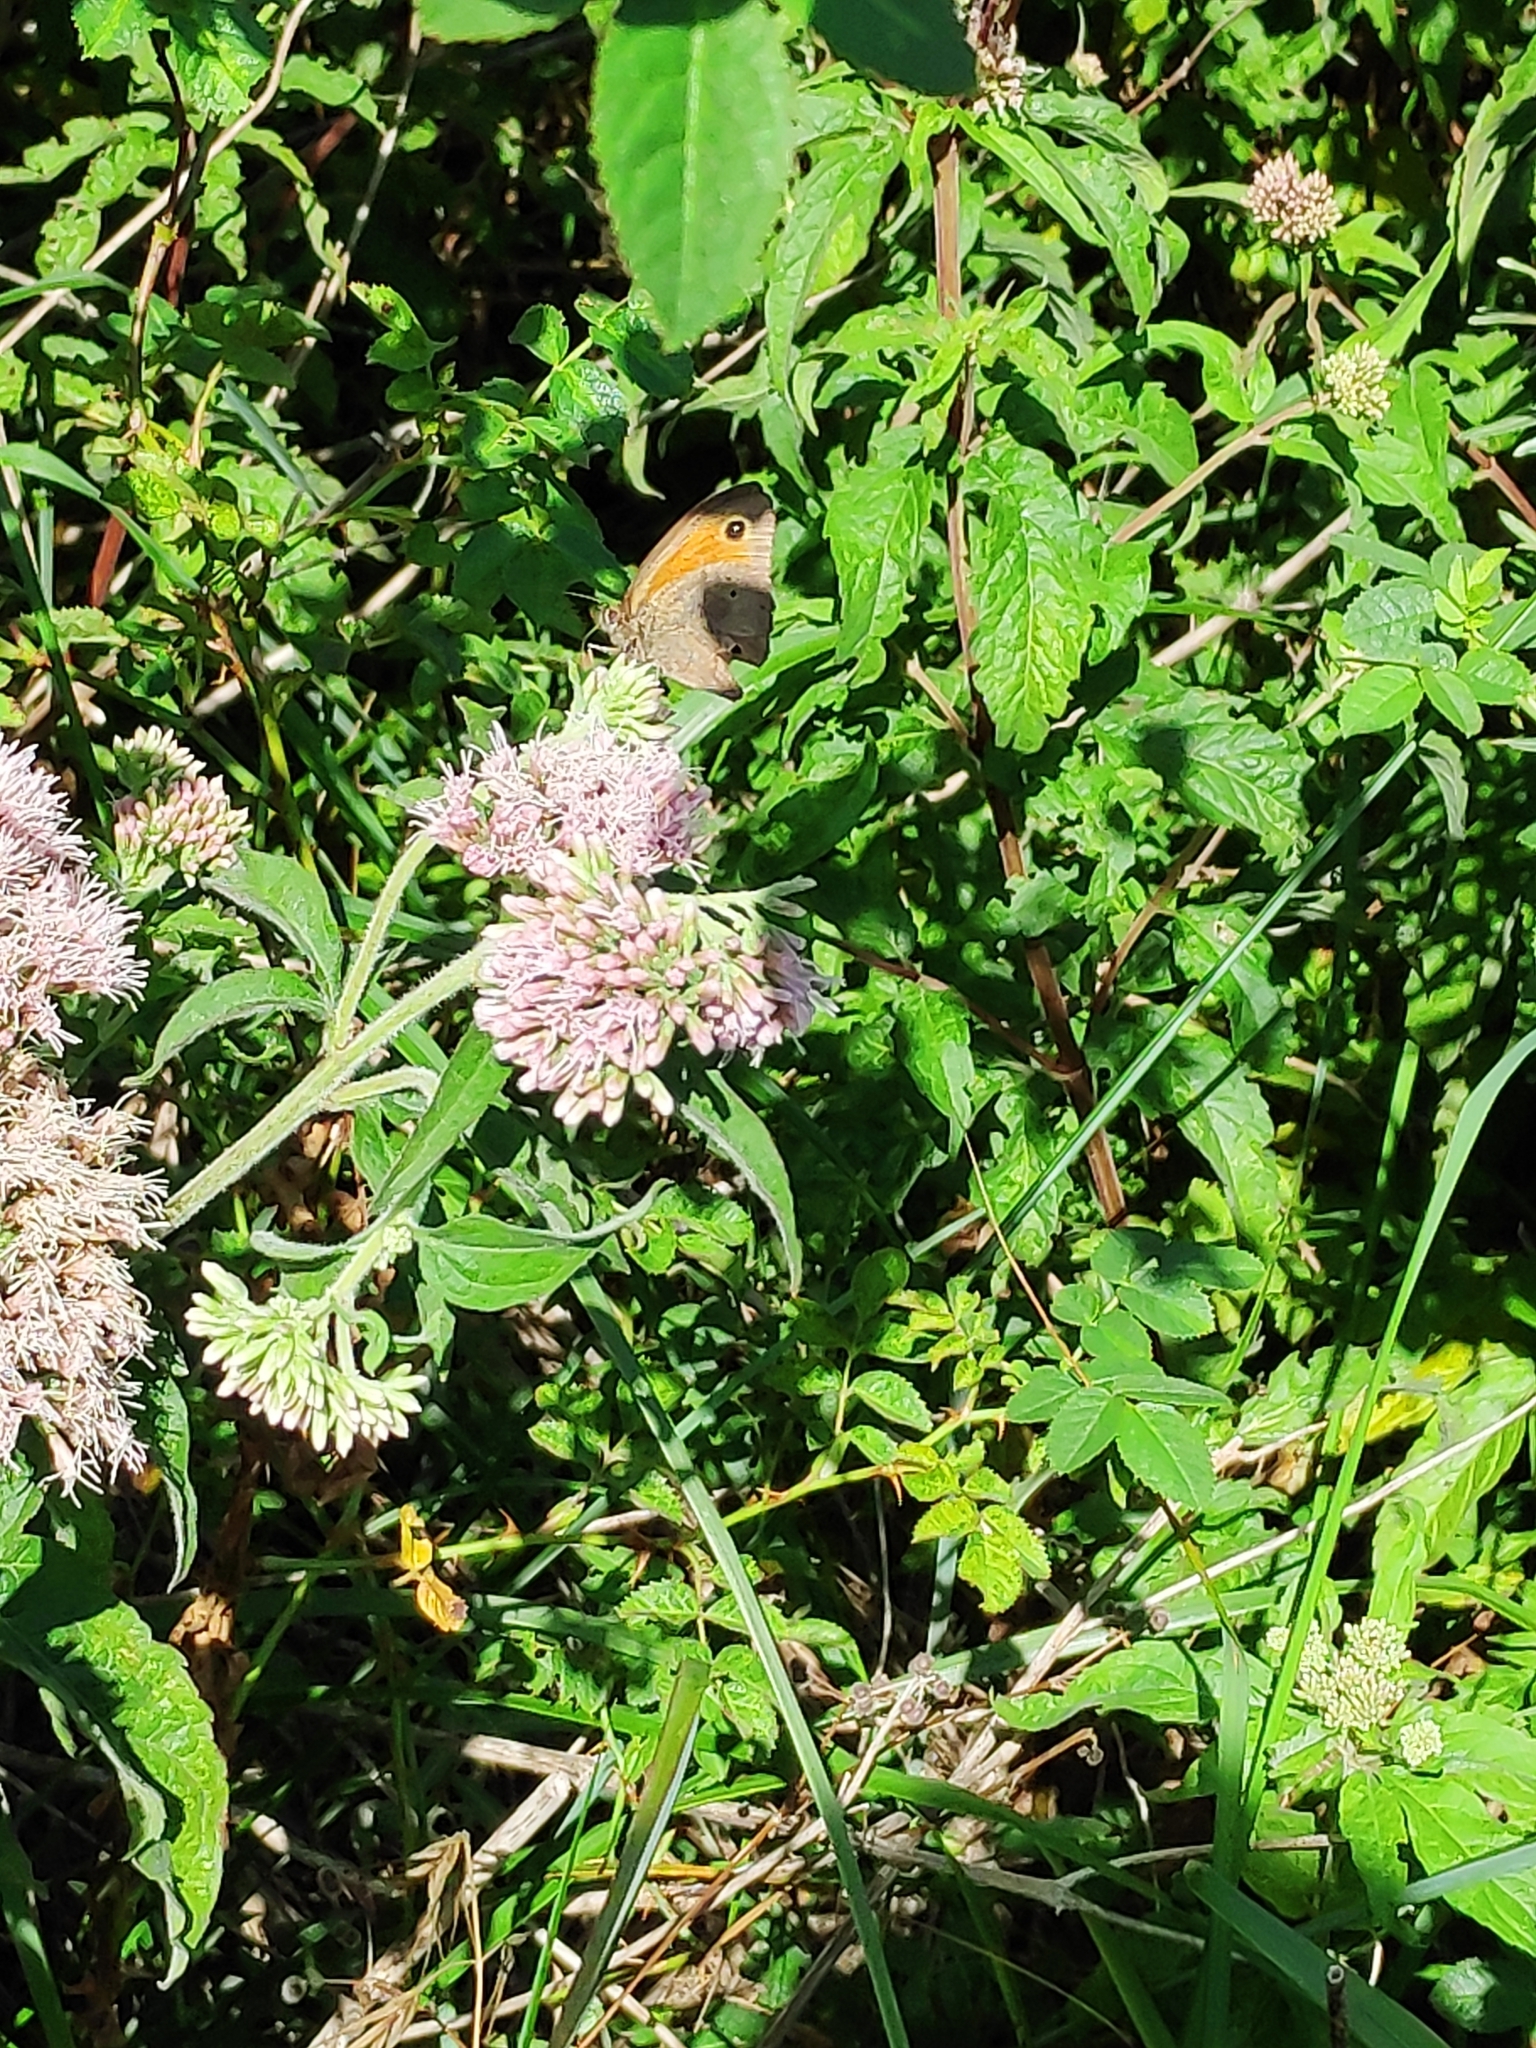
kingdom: Animalia
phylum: Arthropoda
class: Insecta
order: Lepidoptera
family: Nymphalidae
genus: Maniola
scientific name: Maniola jurtina
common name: Meadow brown
